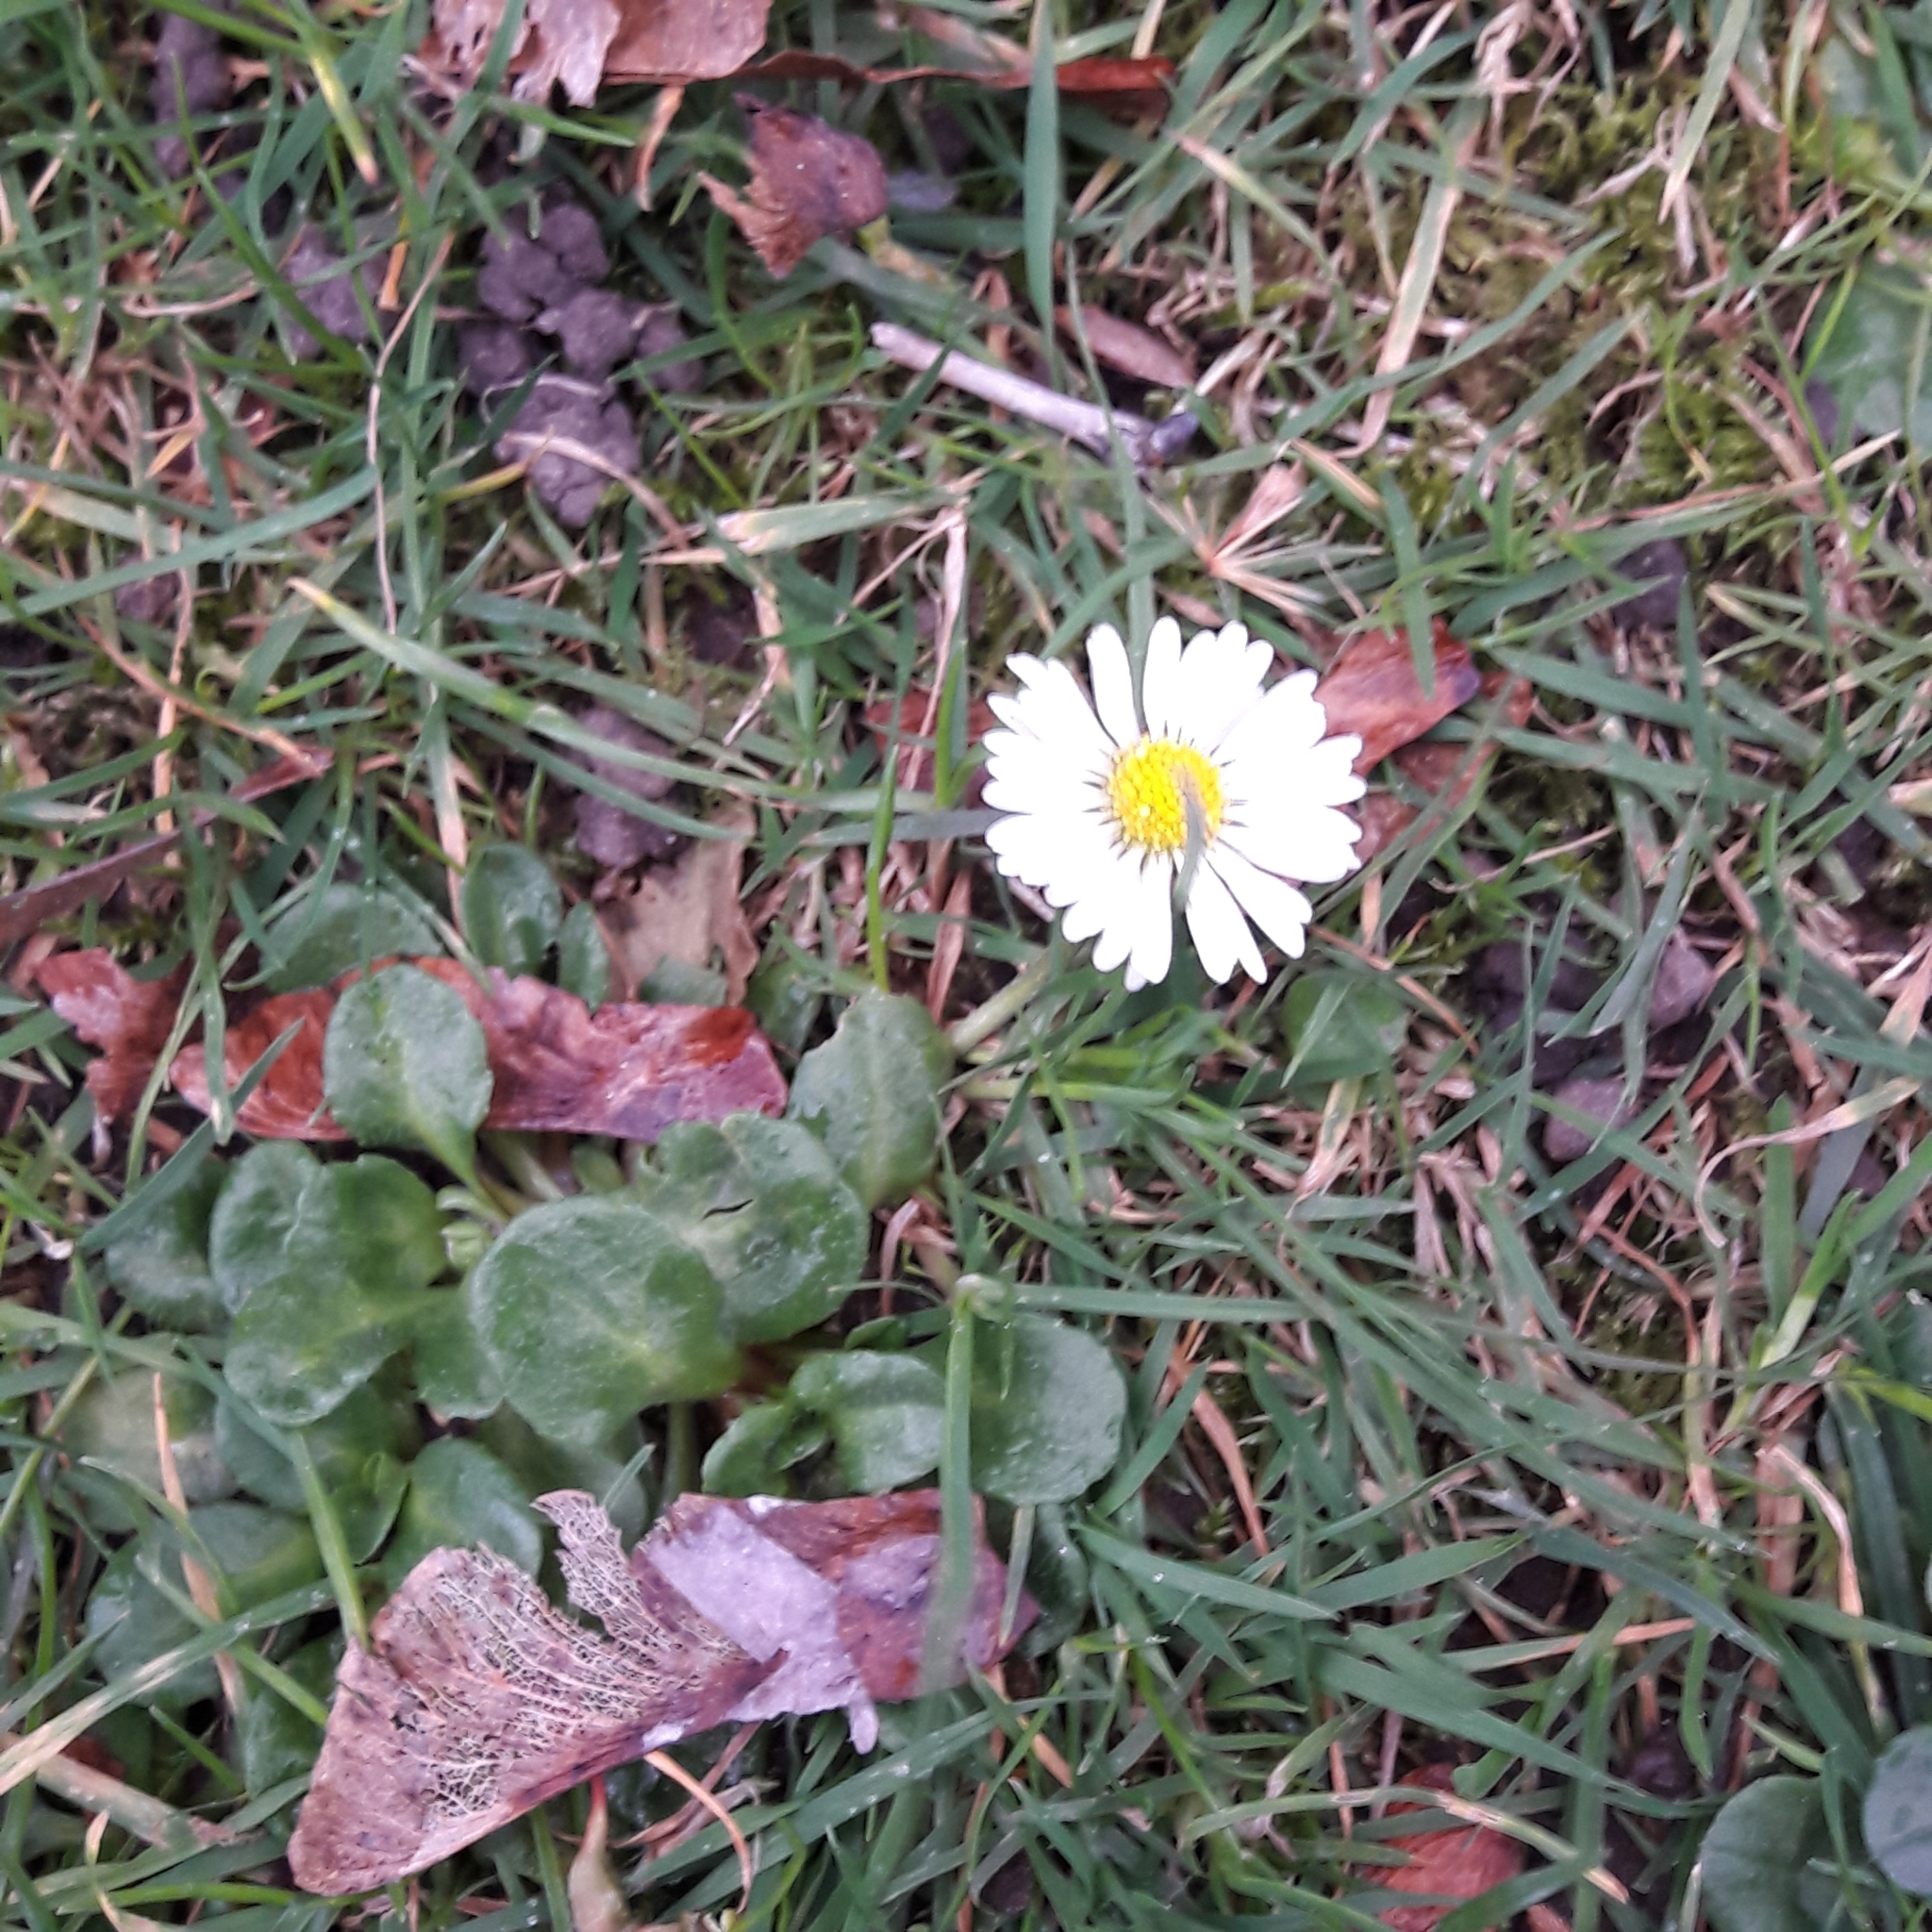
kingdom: Plantae
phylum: Tracheophyta
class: Magnoliopsida
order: Asterales
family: Asteraceae
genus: Bellis
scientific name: Bellis perennis
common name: Lawndaisy
